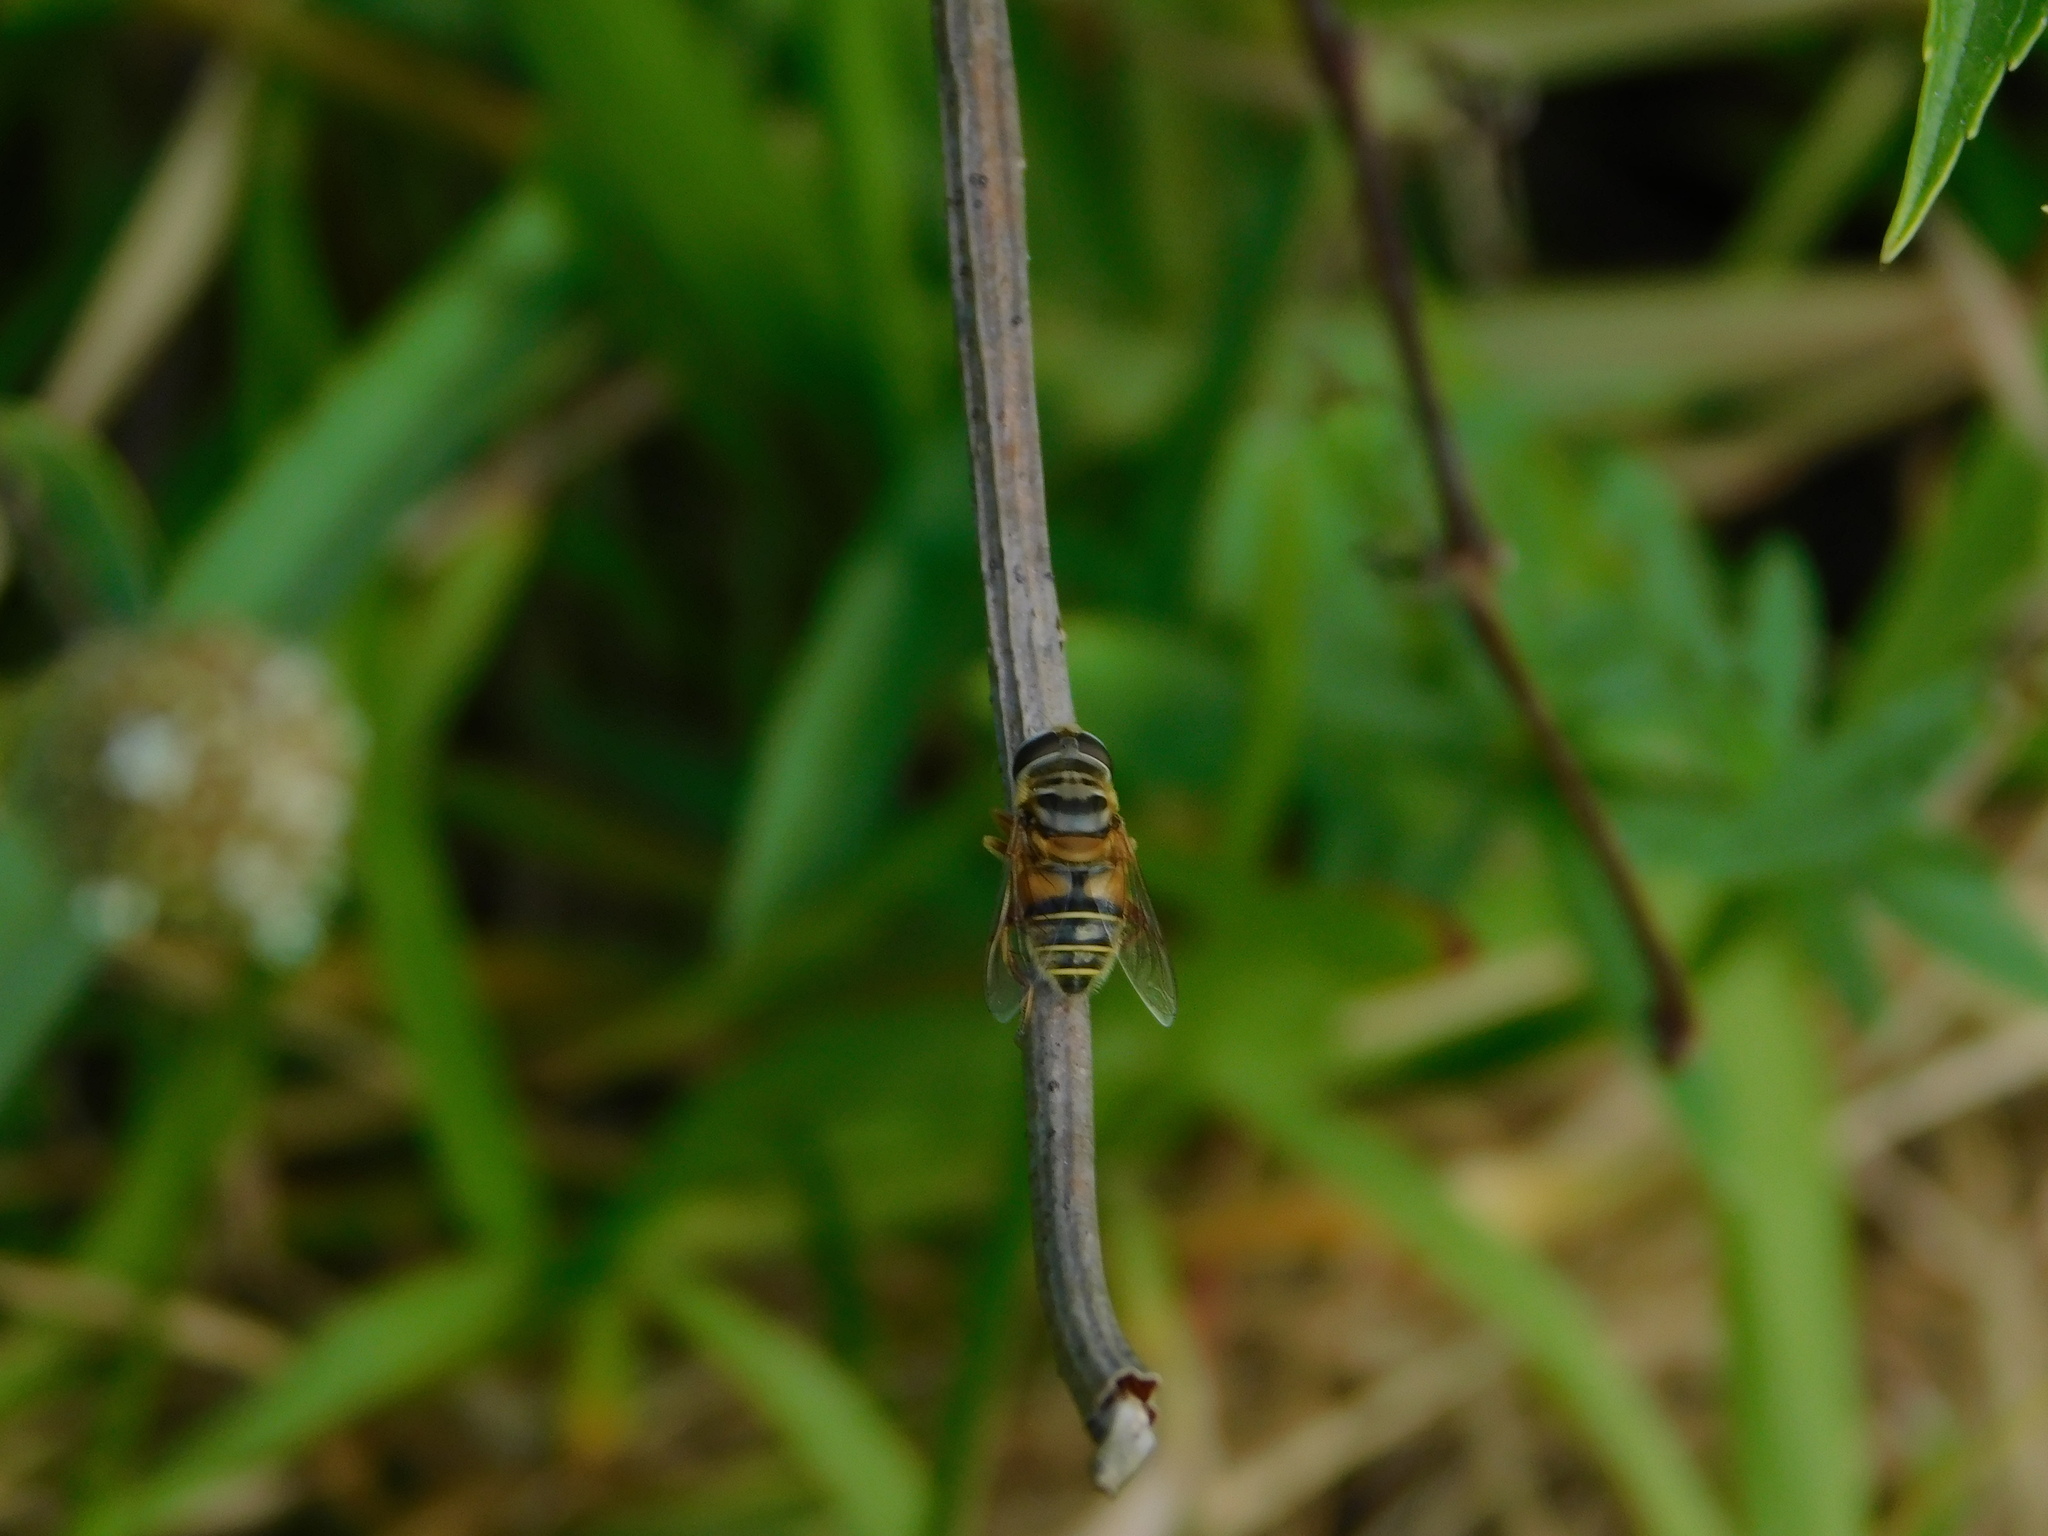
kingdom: Animalia
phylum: Arthropoda
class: Insecta
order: Diptera
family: Syrphidae
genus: Palpada
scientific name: Palpada vinetorum
